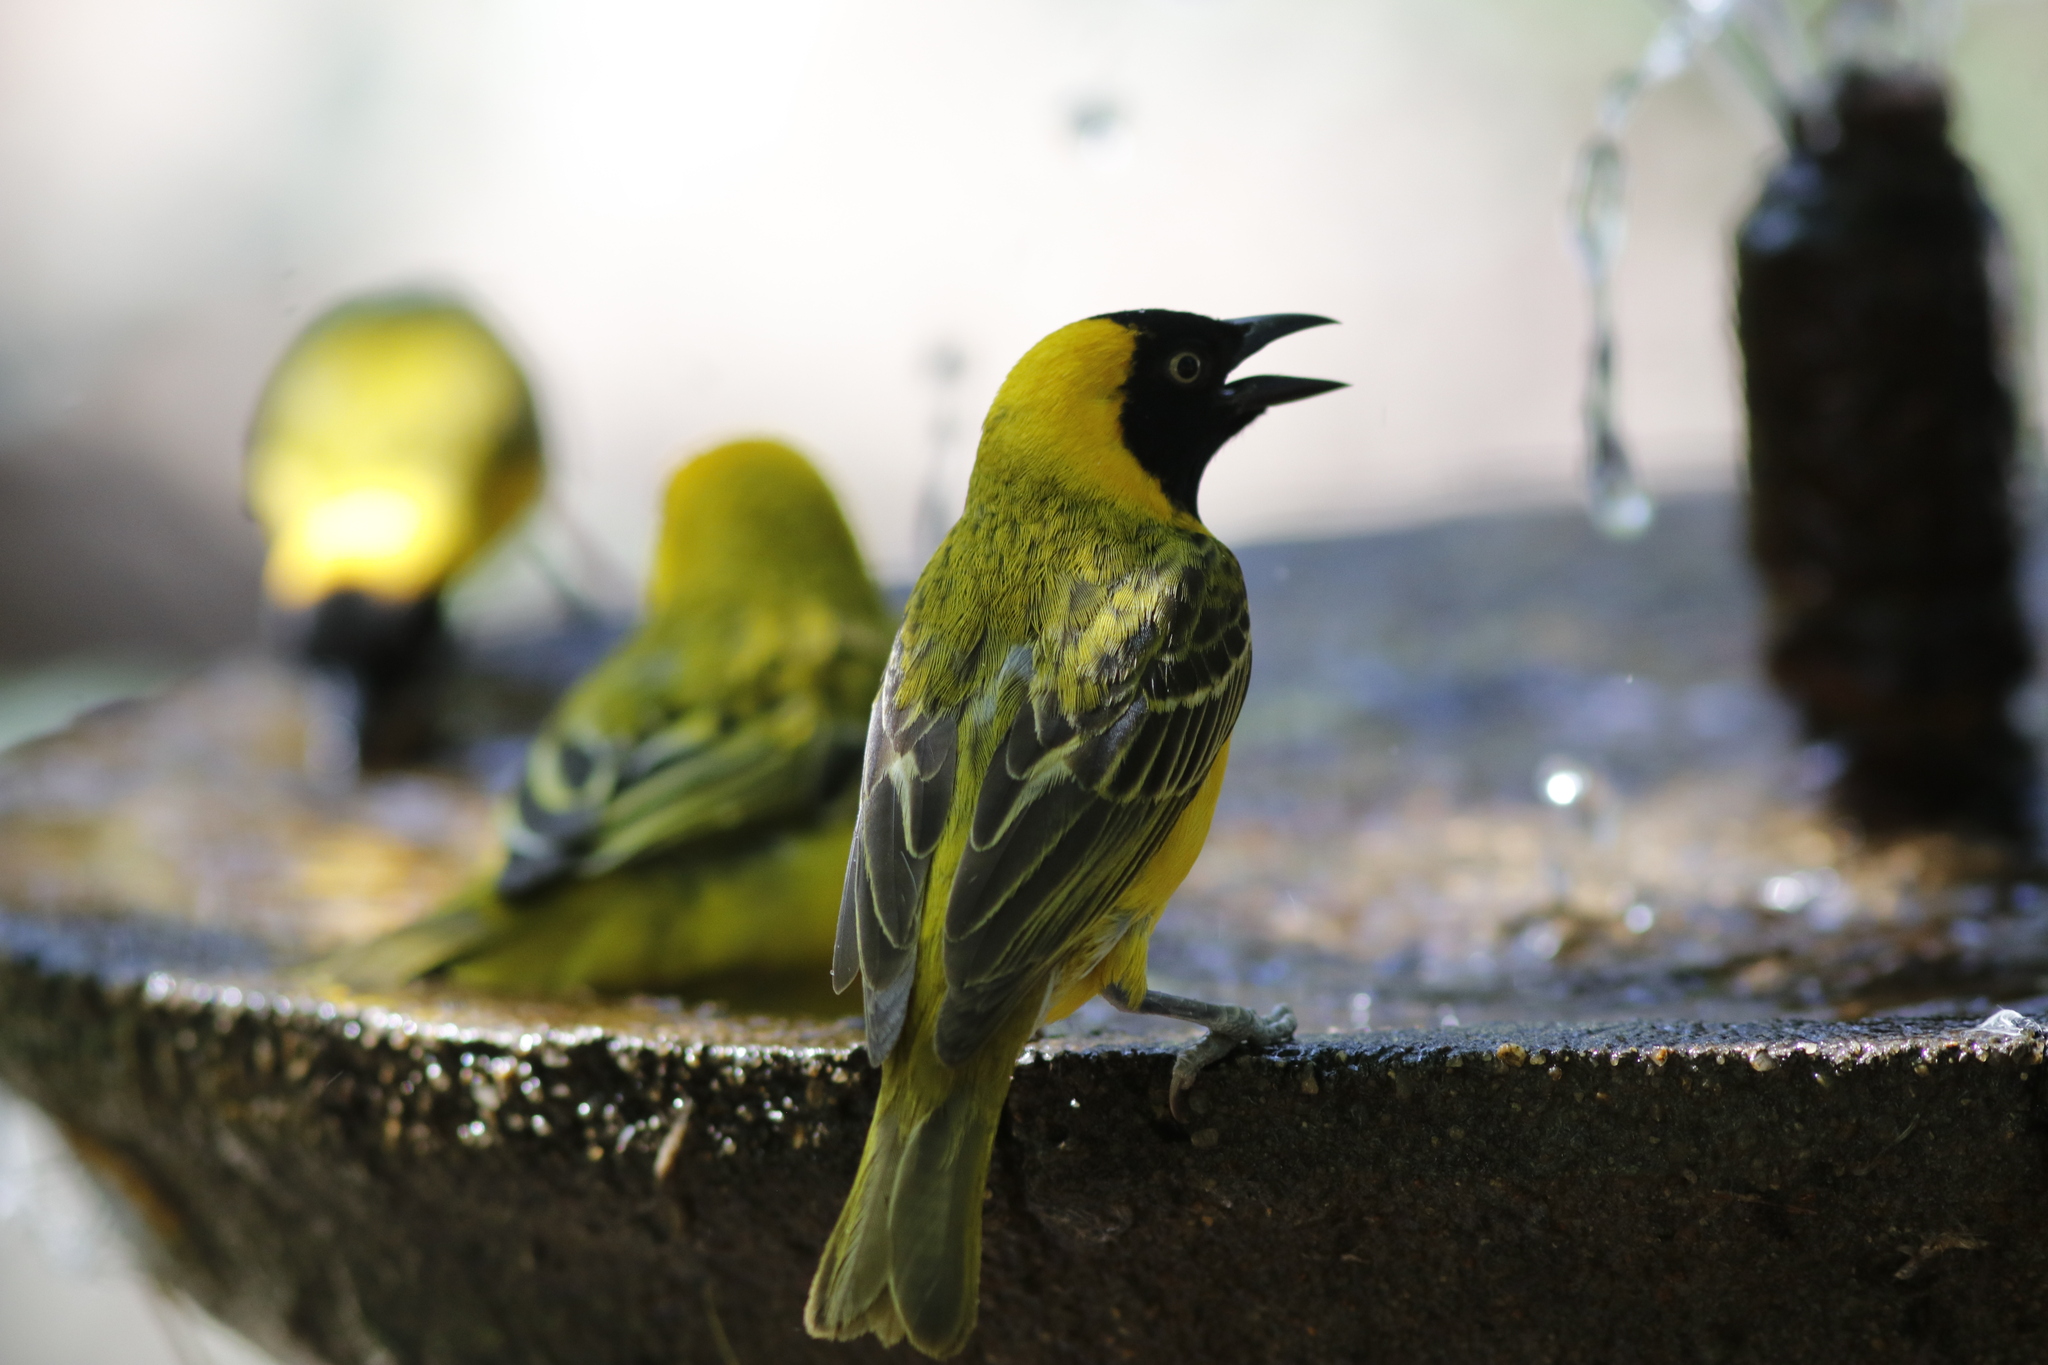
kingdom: Animalia
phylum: Chordata
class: Aves
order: Passeriformes
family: Ploceidae
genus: Ploceus
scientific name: Ploceus intermedius
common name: Lesser masked weaver
